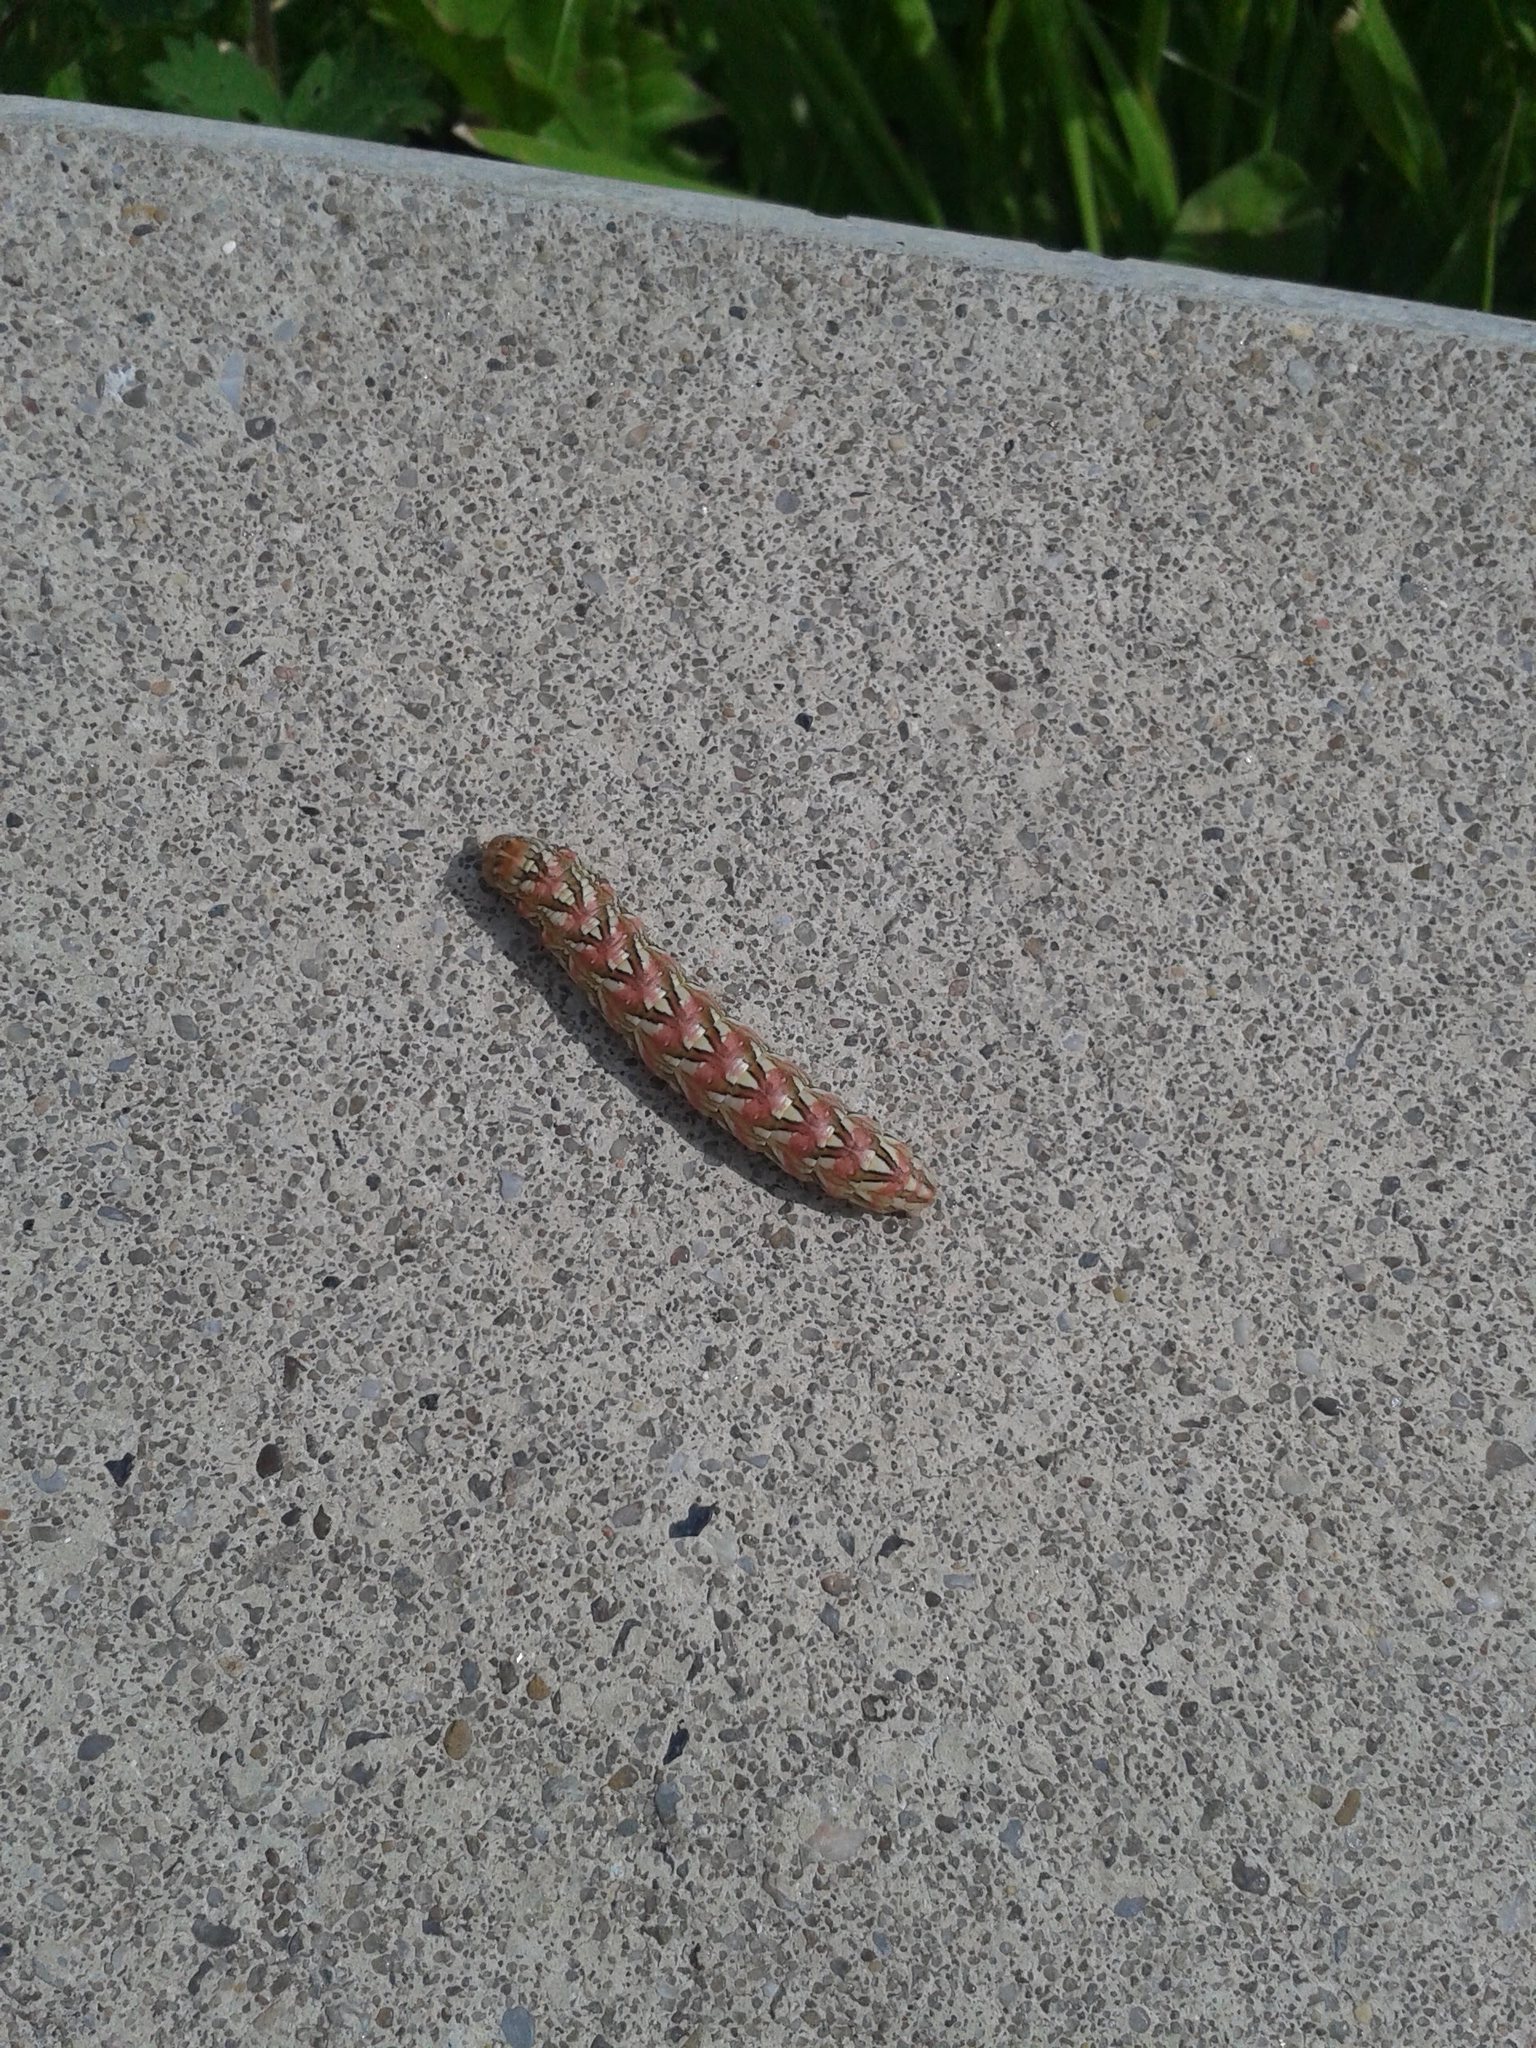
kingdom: Animalia
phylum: Arthropoda
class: Insecta
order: Lepidoptera
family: Noctuidae
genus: Cucullia
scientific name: Cucullia chamomillae
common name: Chamomile shark
